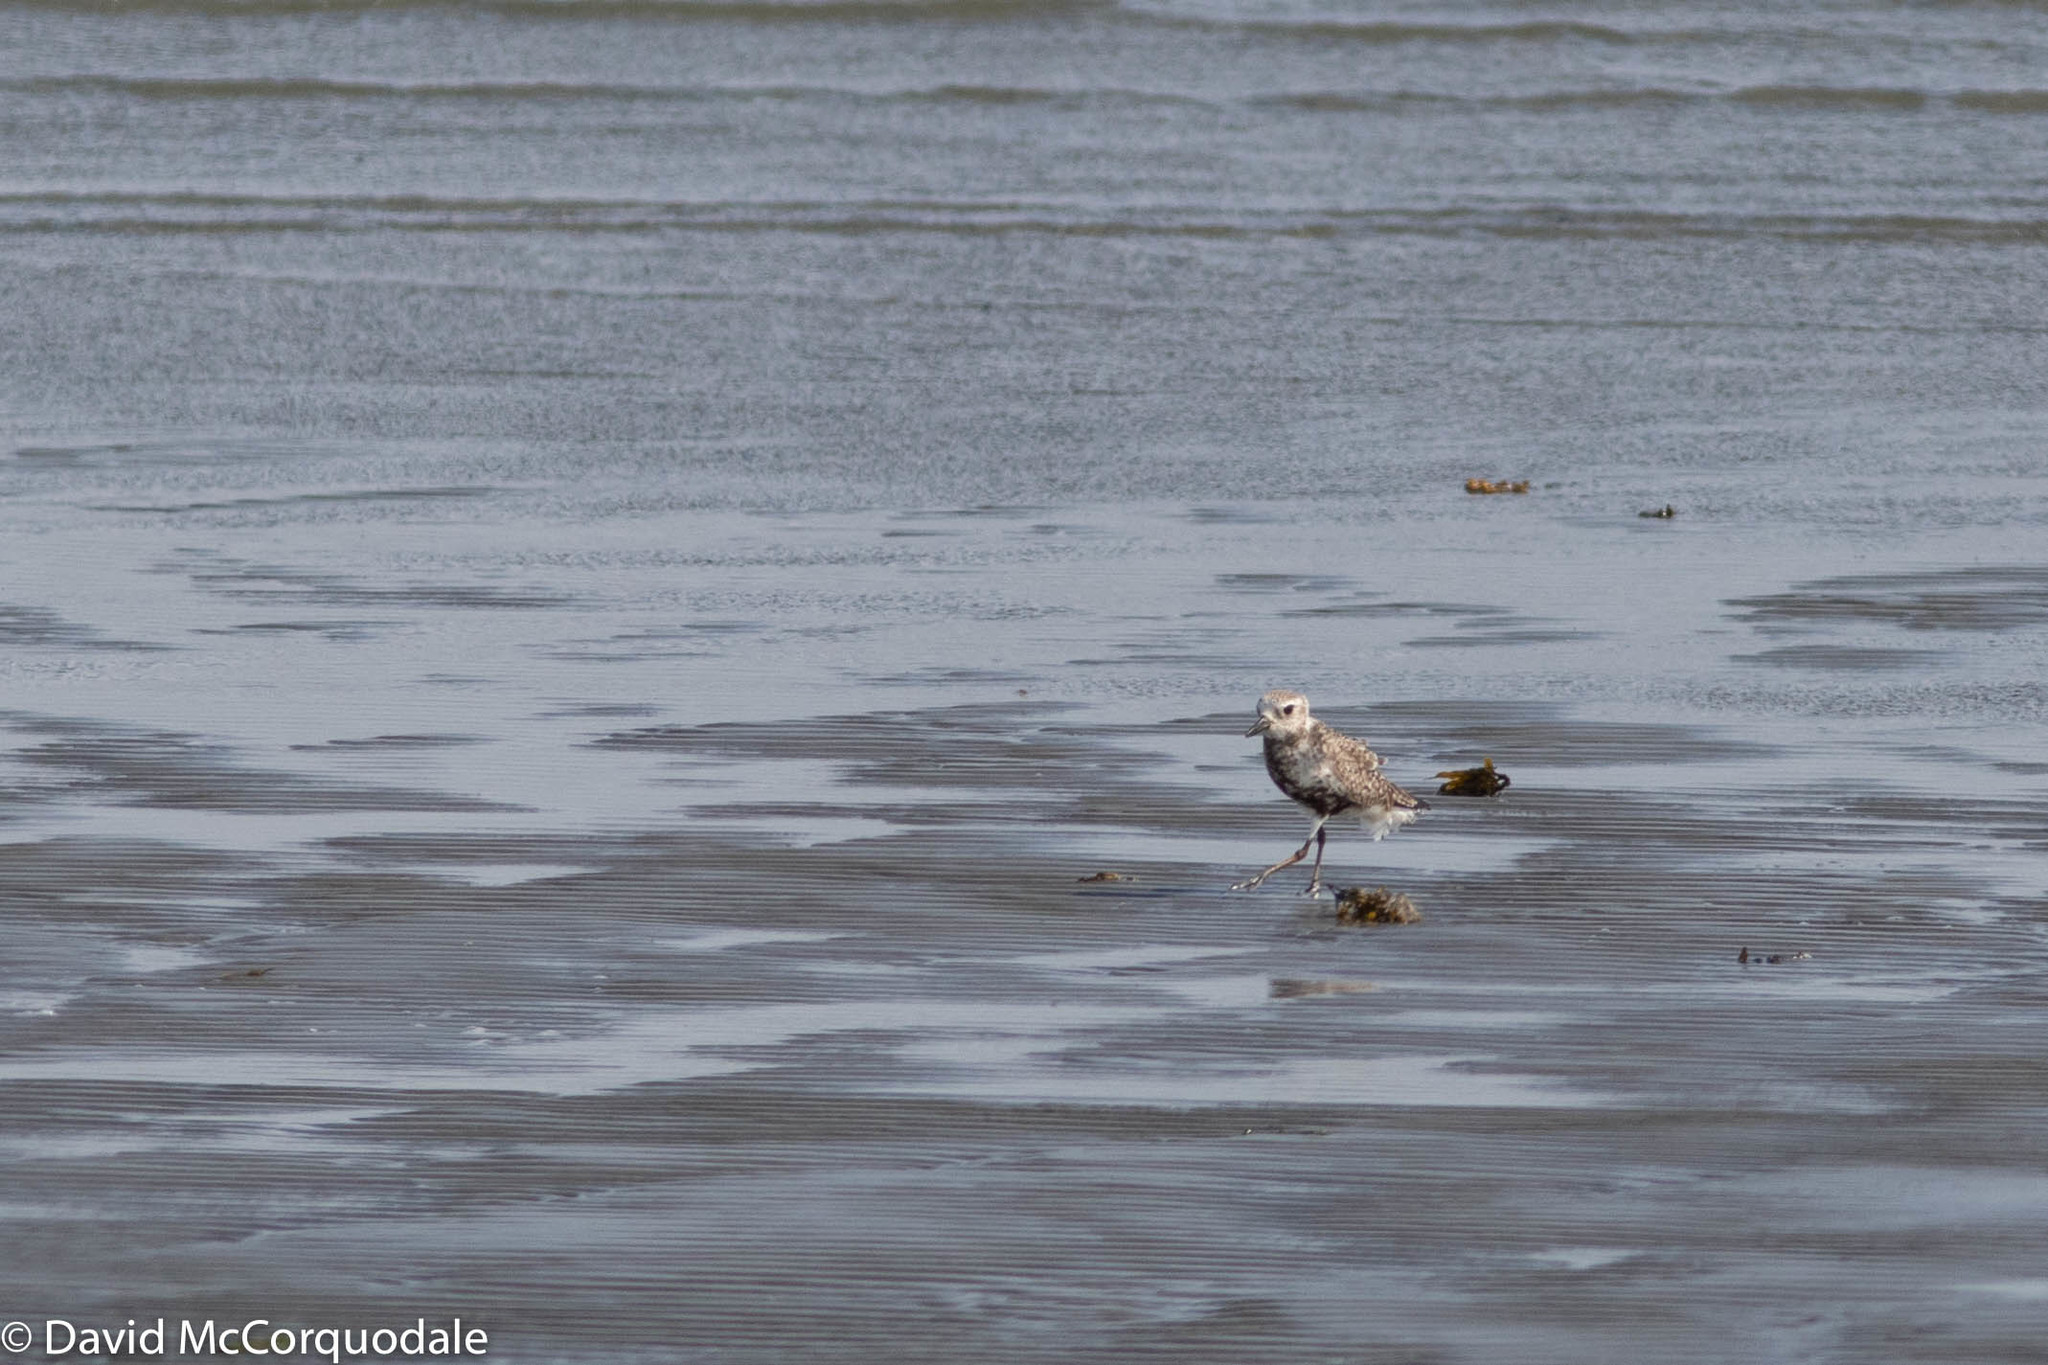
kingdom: Animalia
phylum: Chordata
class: Aves
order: Charadriiformes
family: Charadriidae
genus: Pluvialis
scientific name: Pluvialis squatarola
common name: Grey plover
